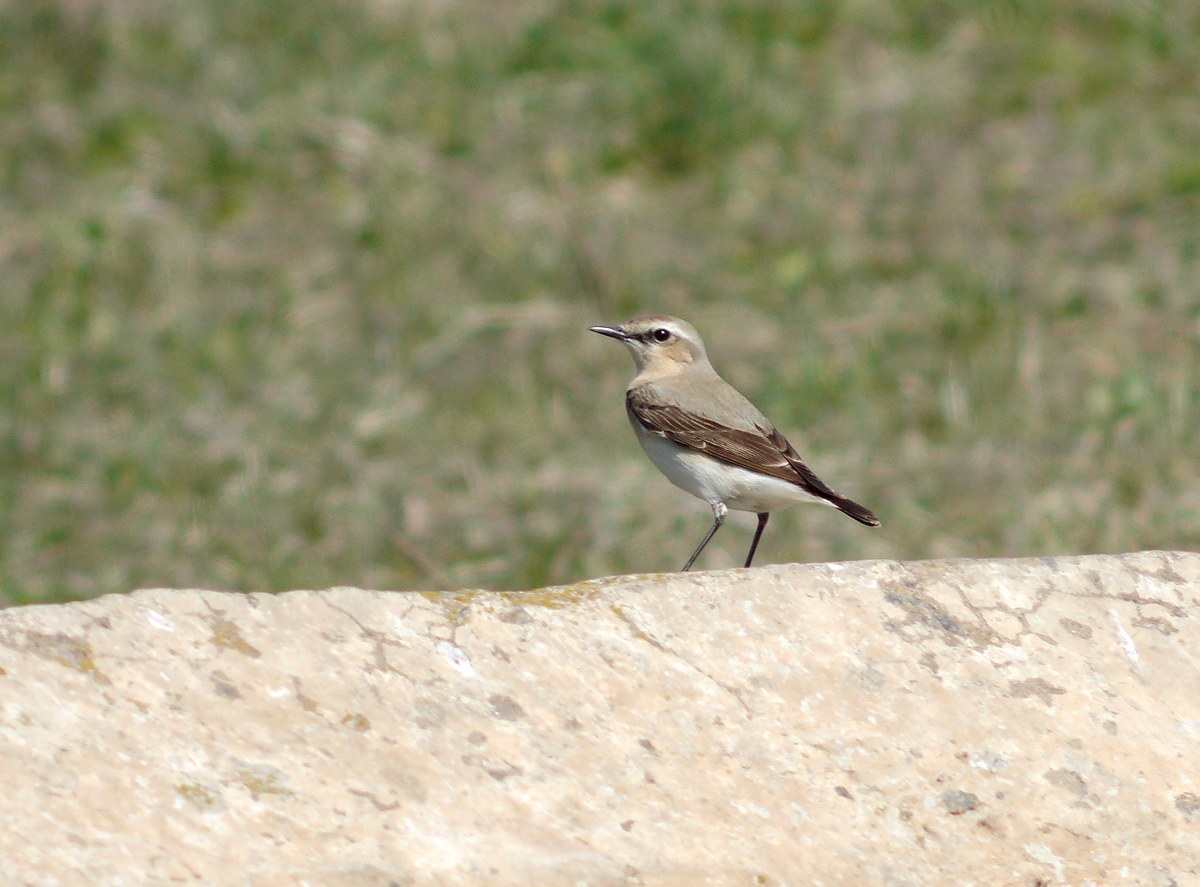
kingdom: Animalia
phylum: Chordata
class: Aves
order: Passeriformes
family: Muscicapidae
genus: Oenanthe
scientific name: Oenanthe oenanthe
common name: Northern wheatear
